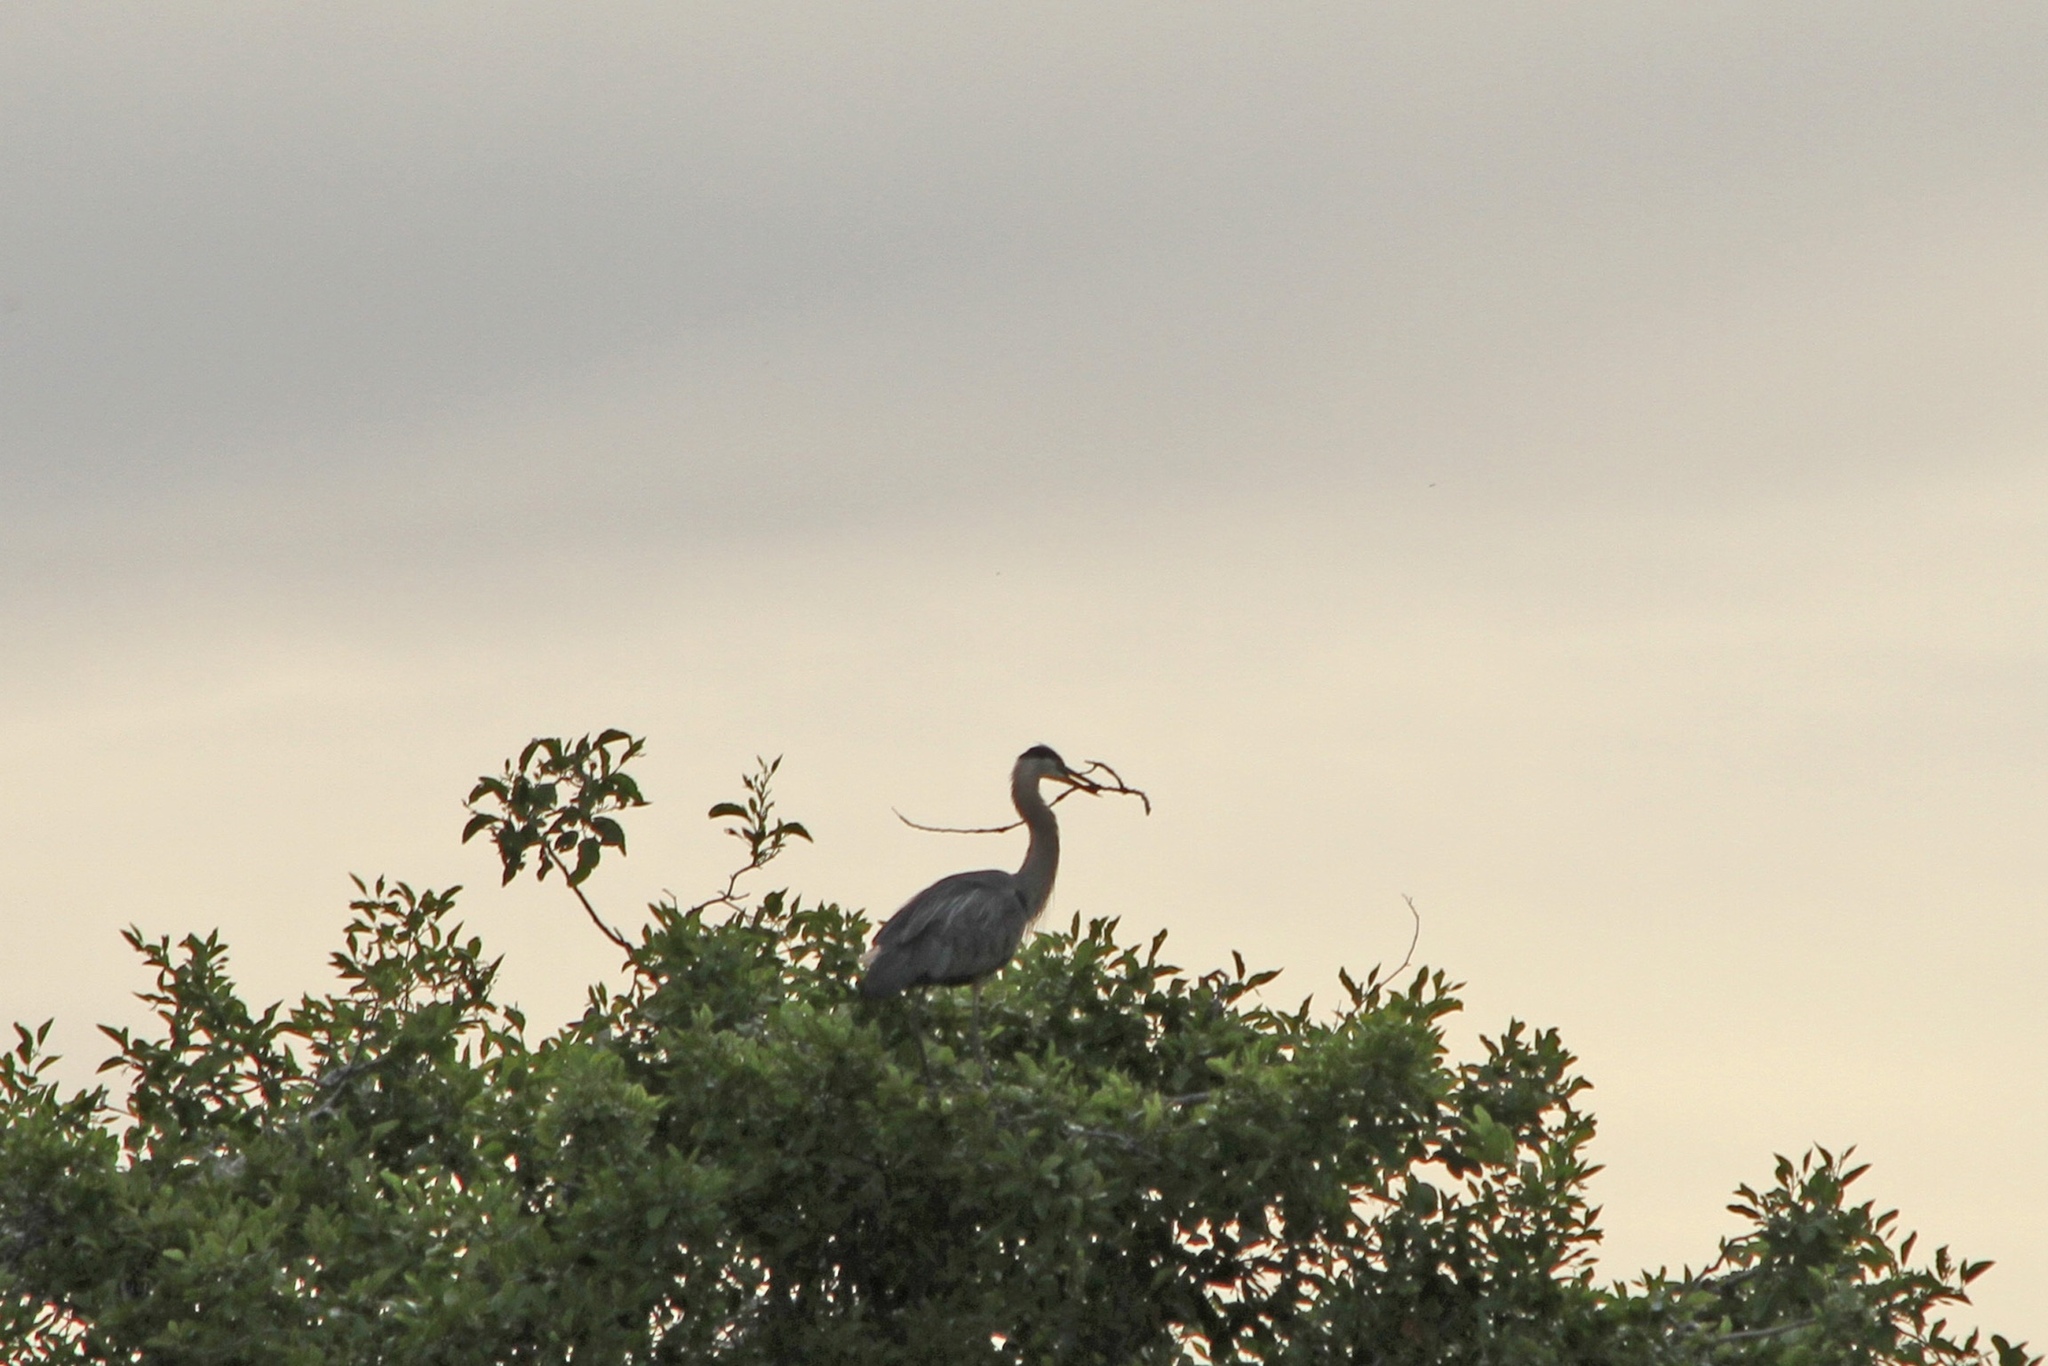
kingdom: Animalia
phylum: Chordata
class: Aves
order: Pelecaniformes
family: Ardeidae
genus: Ardea
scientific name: Ardea herodias
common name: Great blue heron
